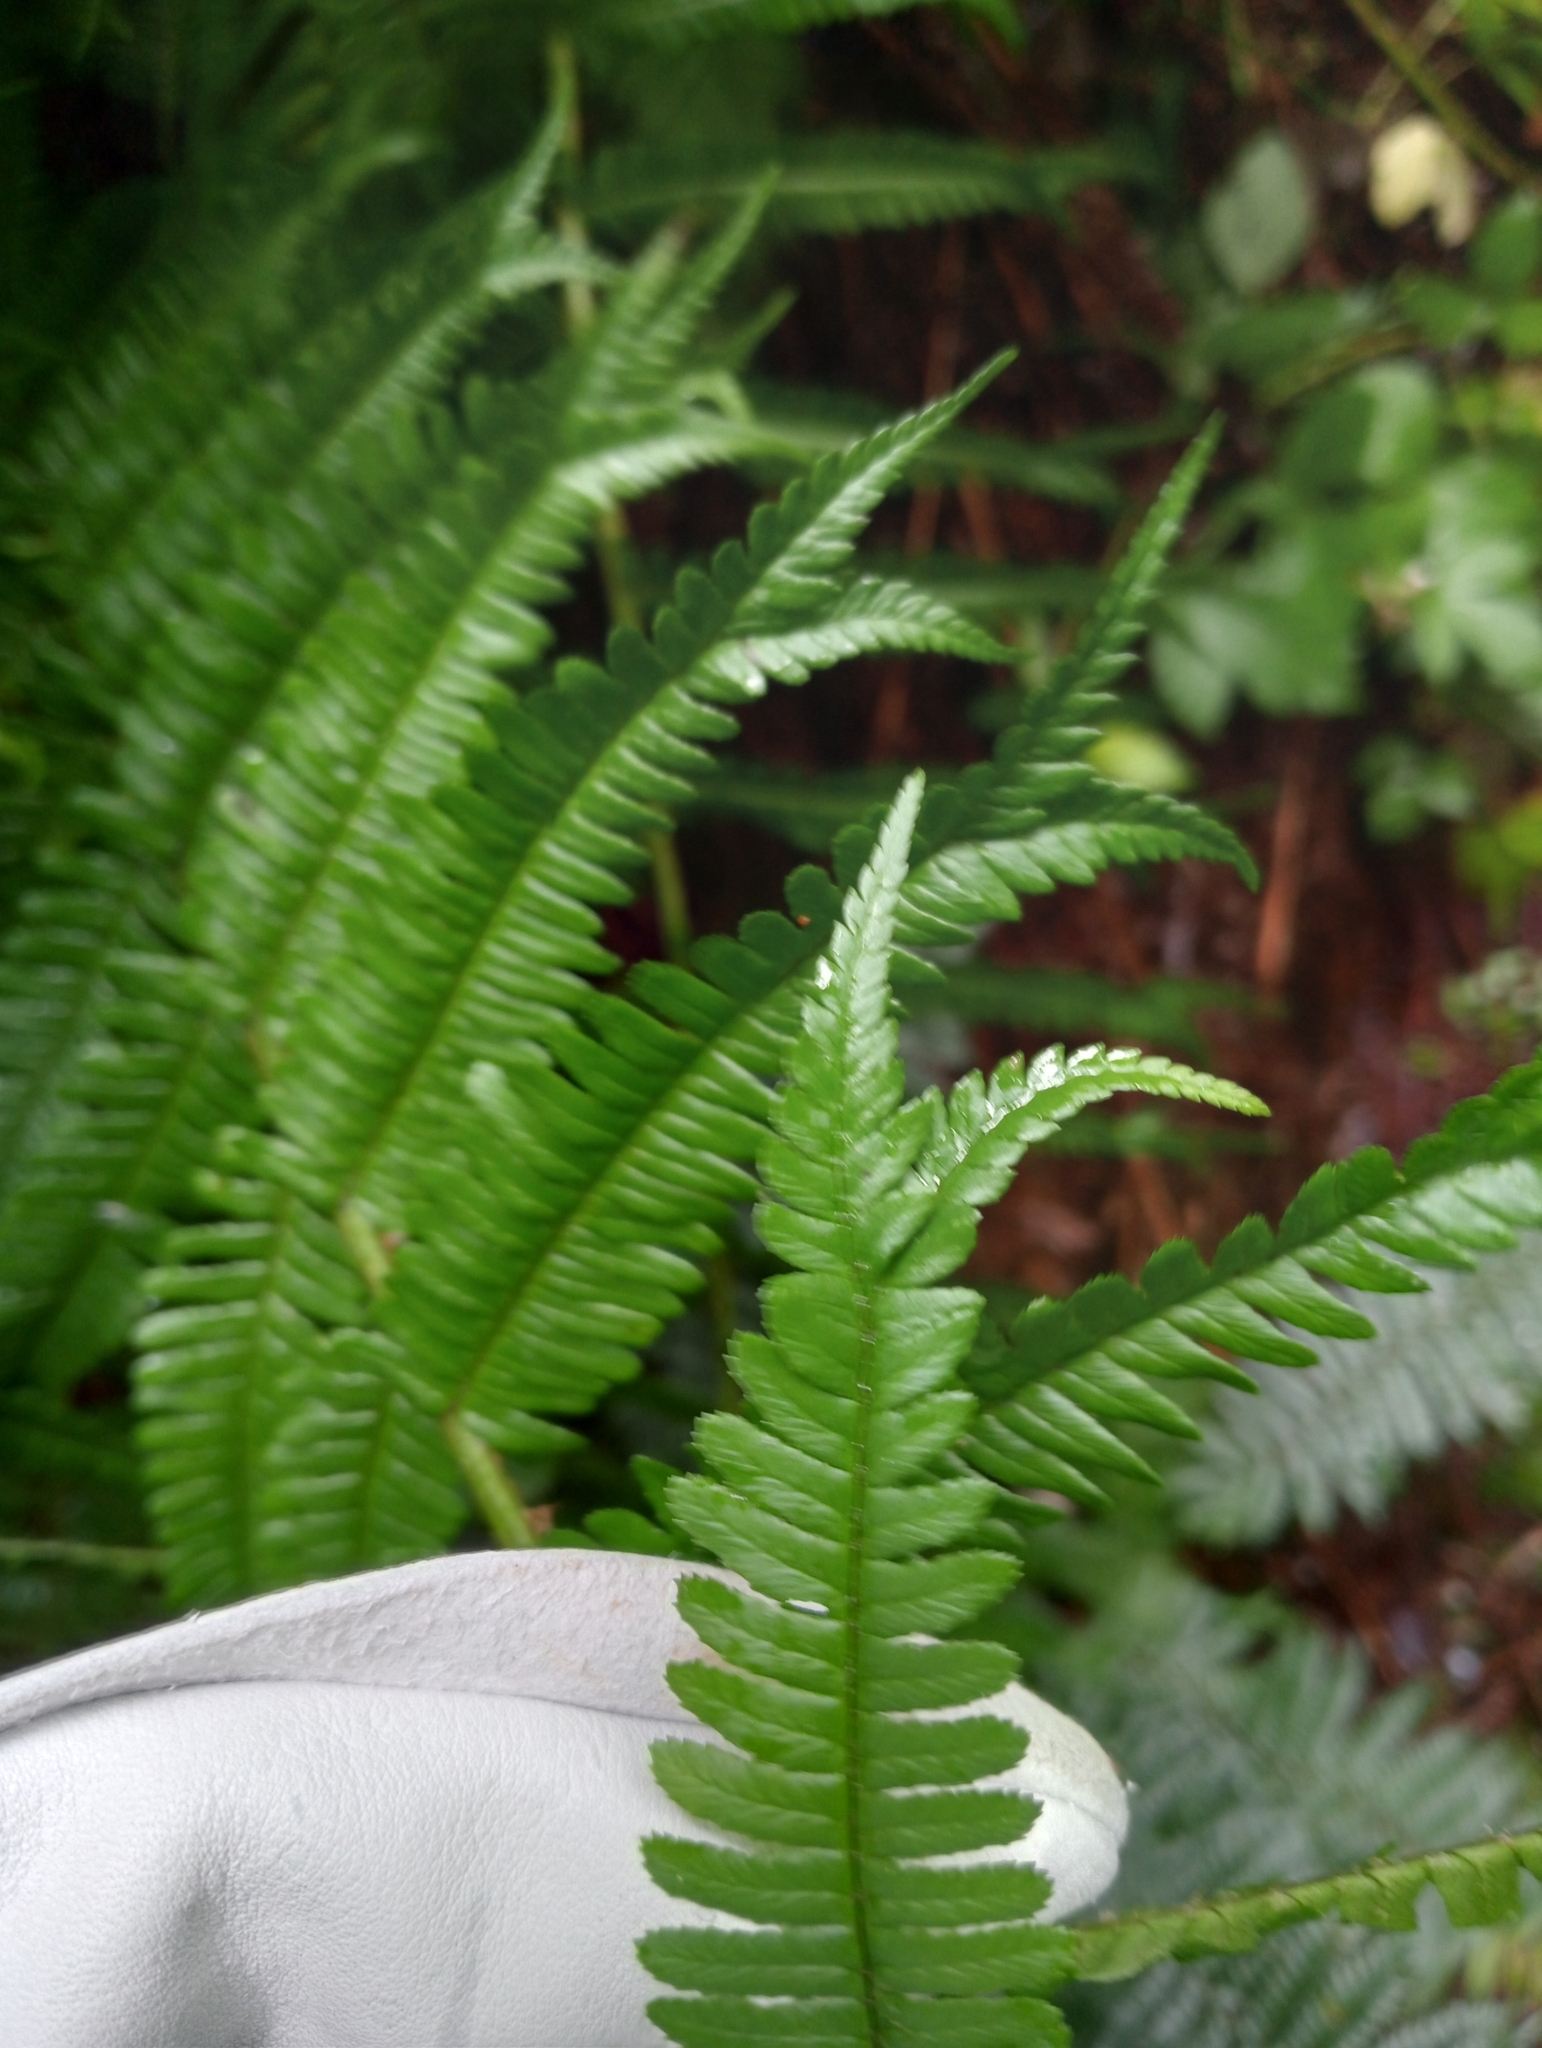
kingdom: Plantae
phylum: Tracheophyta
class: Polypodiopsida
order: Polypodiales
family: Thelypteridaceae
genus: Pakau
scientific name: Pakau pennigera
